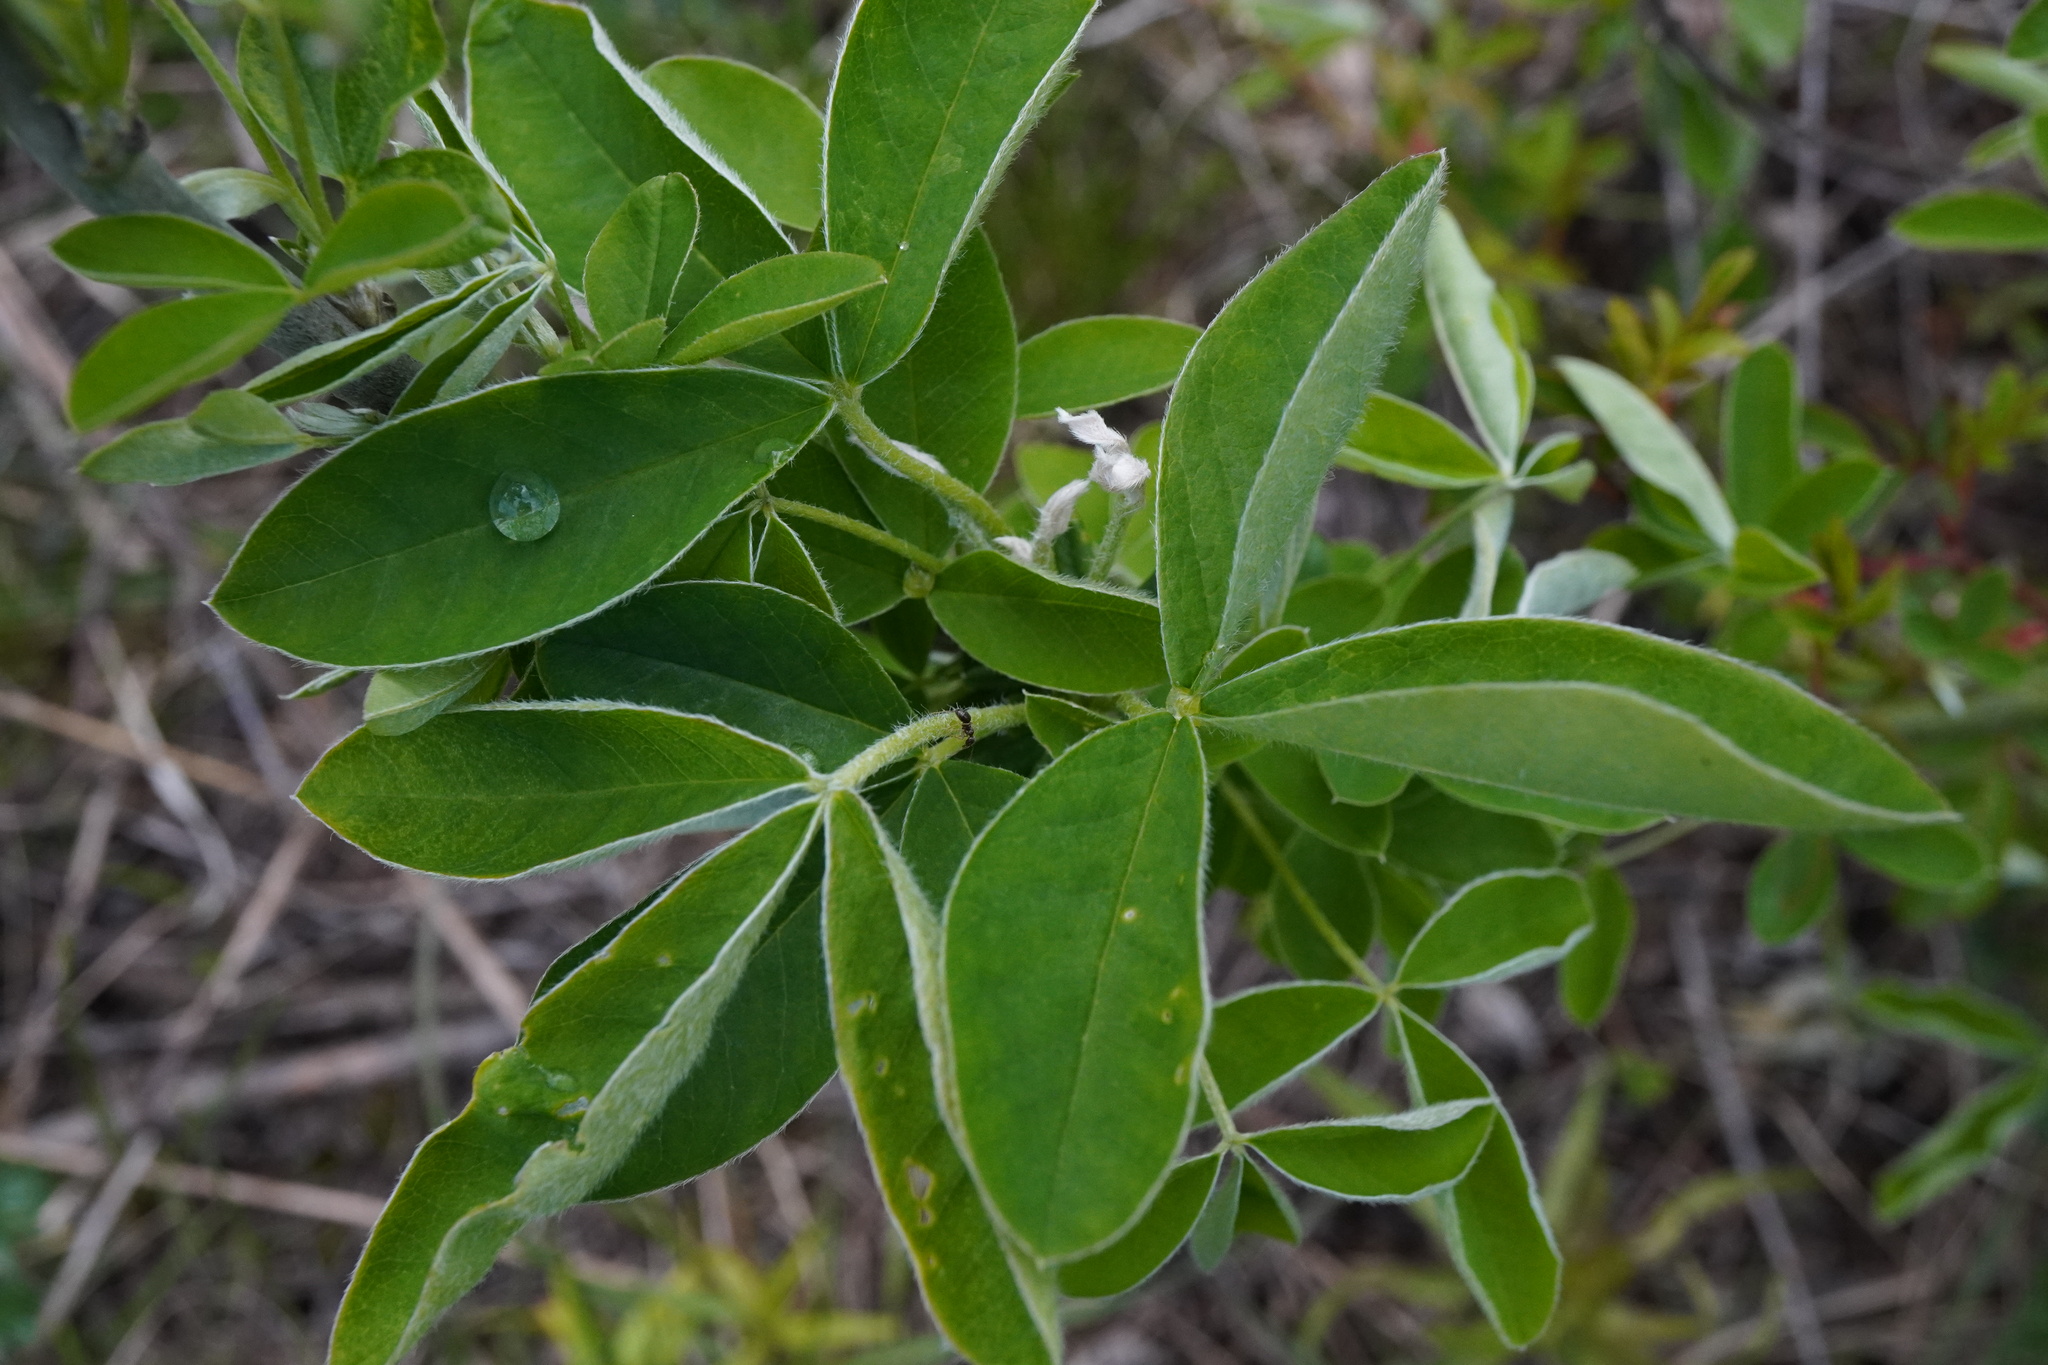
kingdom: Plantae
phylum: Tracheophyta
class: Magnoliopsida
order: Fabales
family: Fabaceae
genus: Laburnum
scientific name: Laburnum anagyroides
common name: Laburnum
